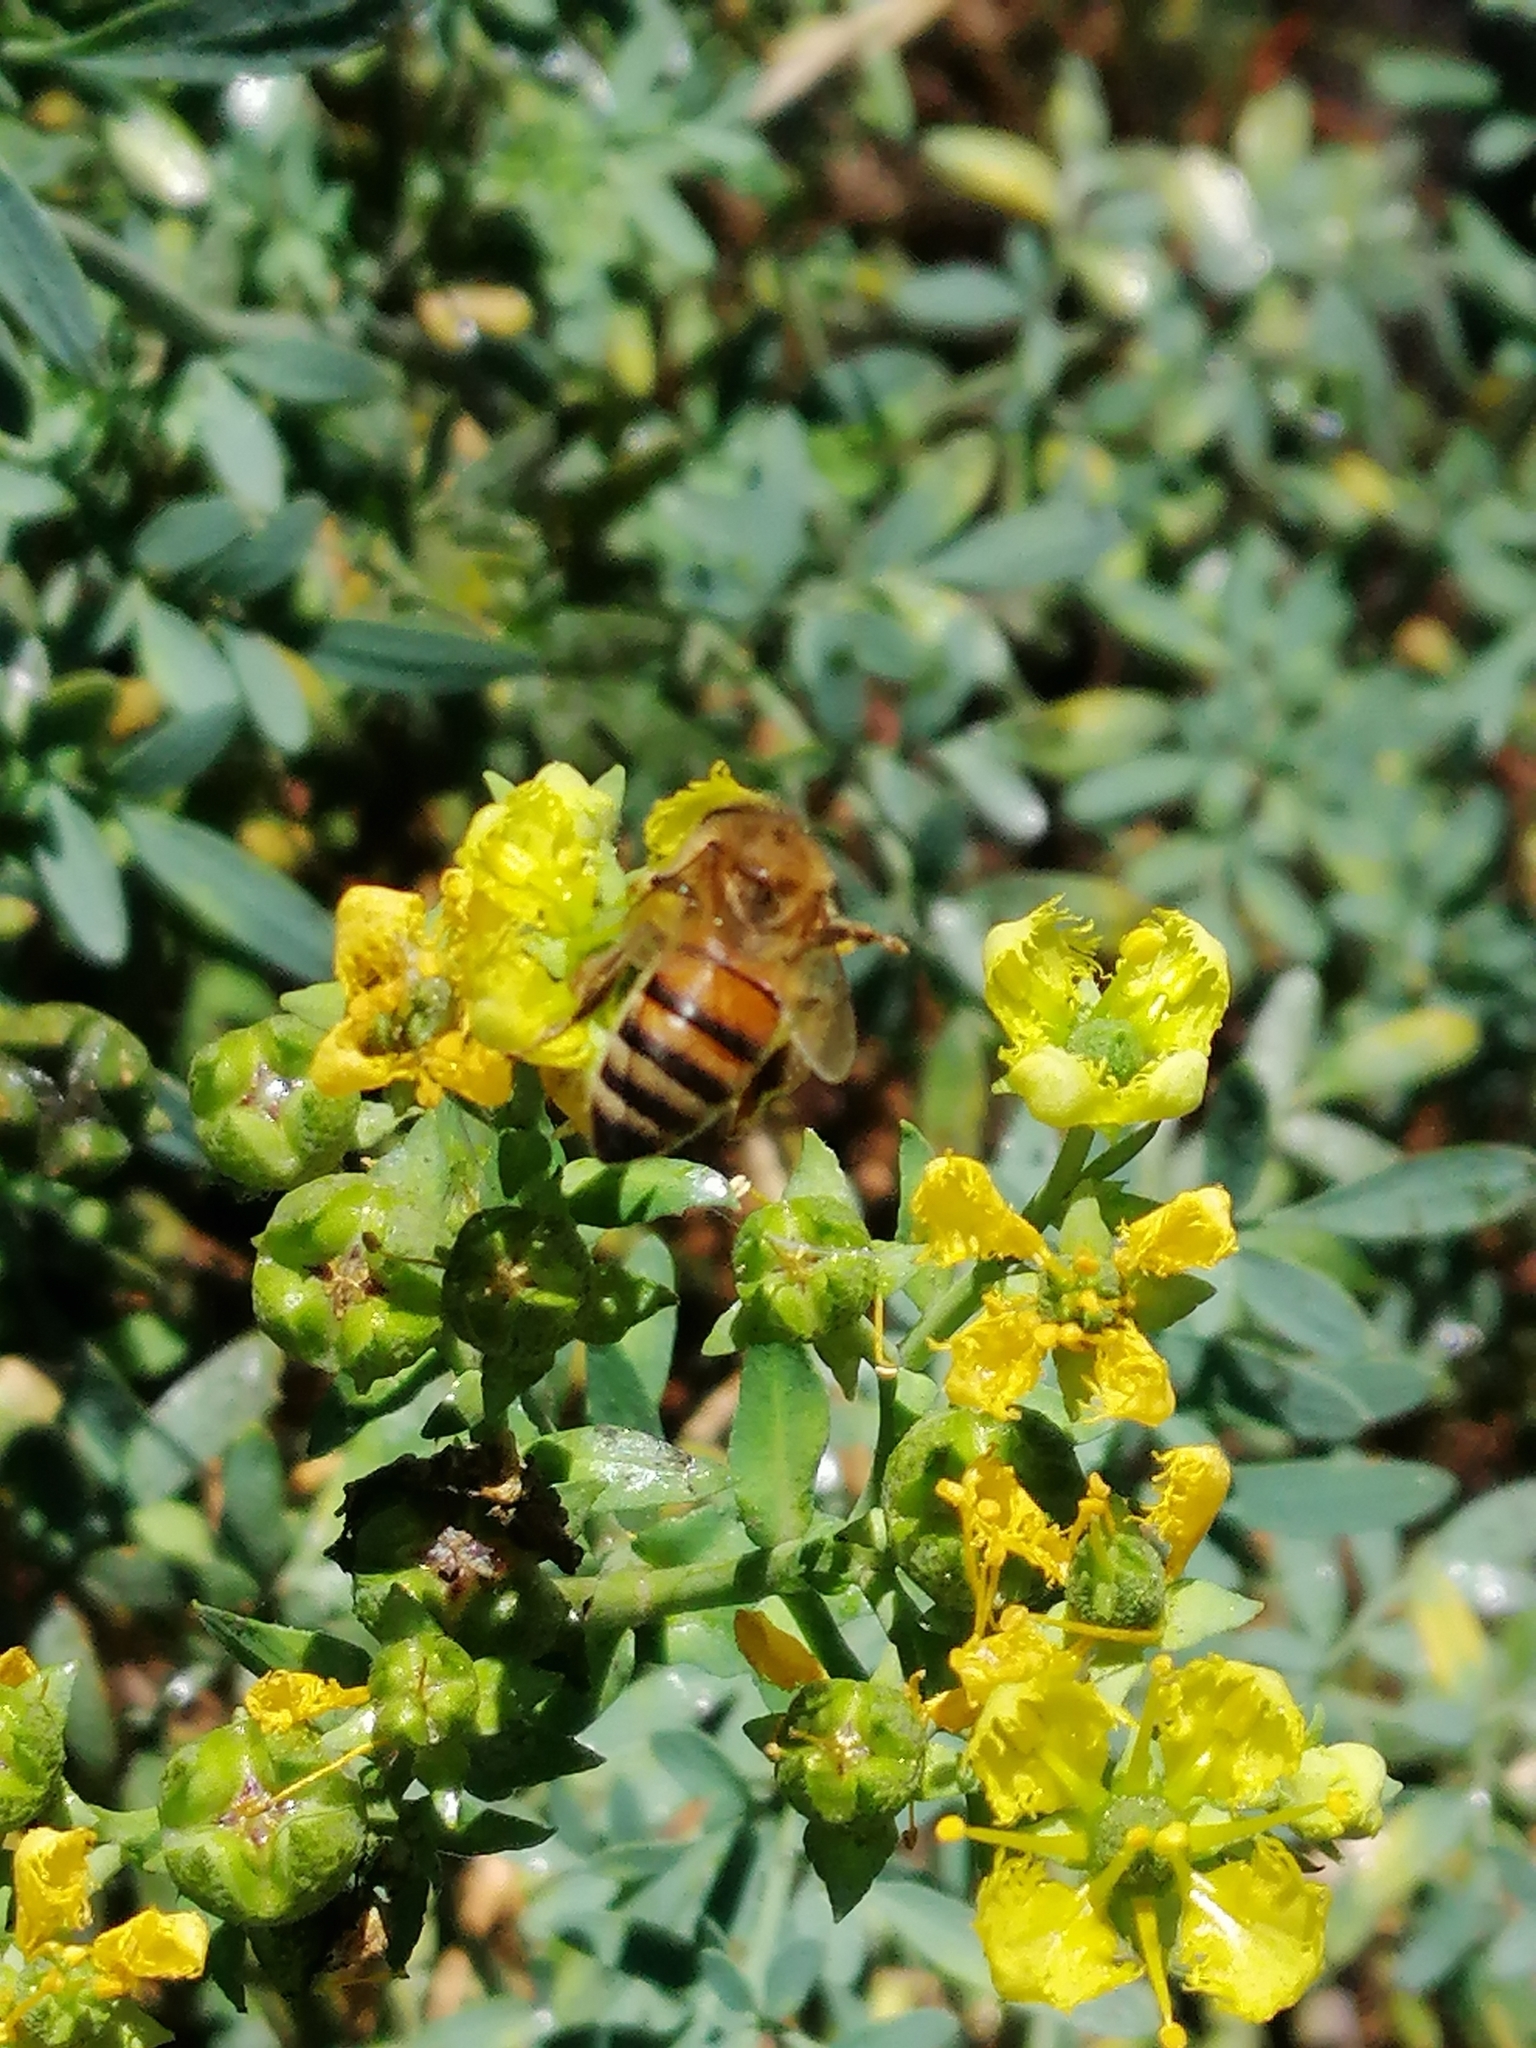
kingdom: Animalia
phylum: Arthropoda
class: Insecta
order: Hymenoptera
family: Apidae
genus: Apis
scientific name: Apis mellifera
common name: Honey bee
